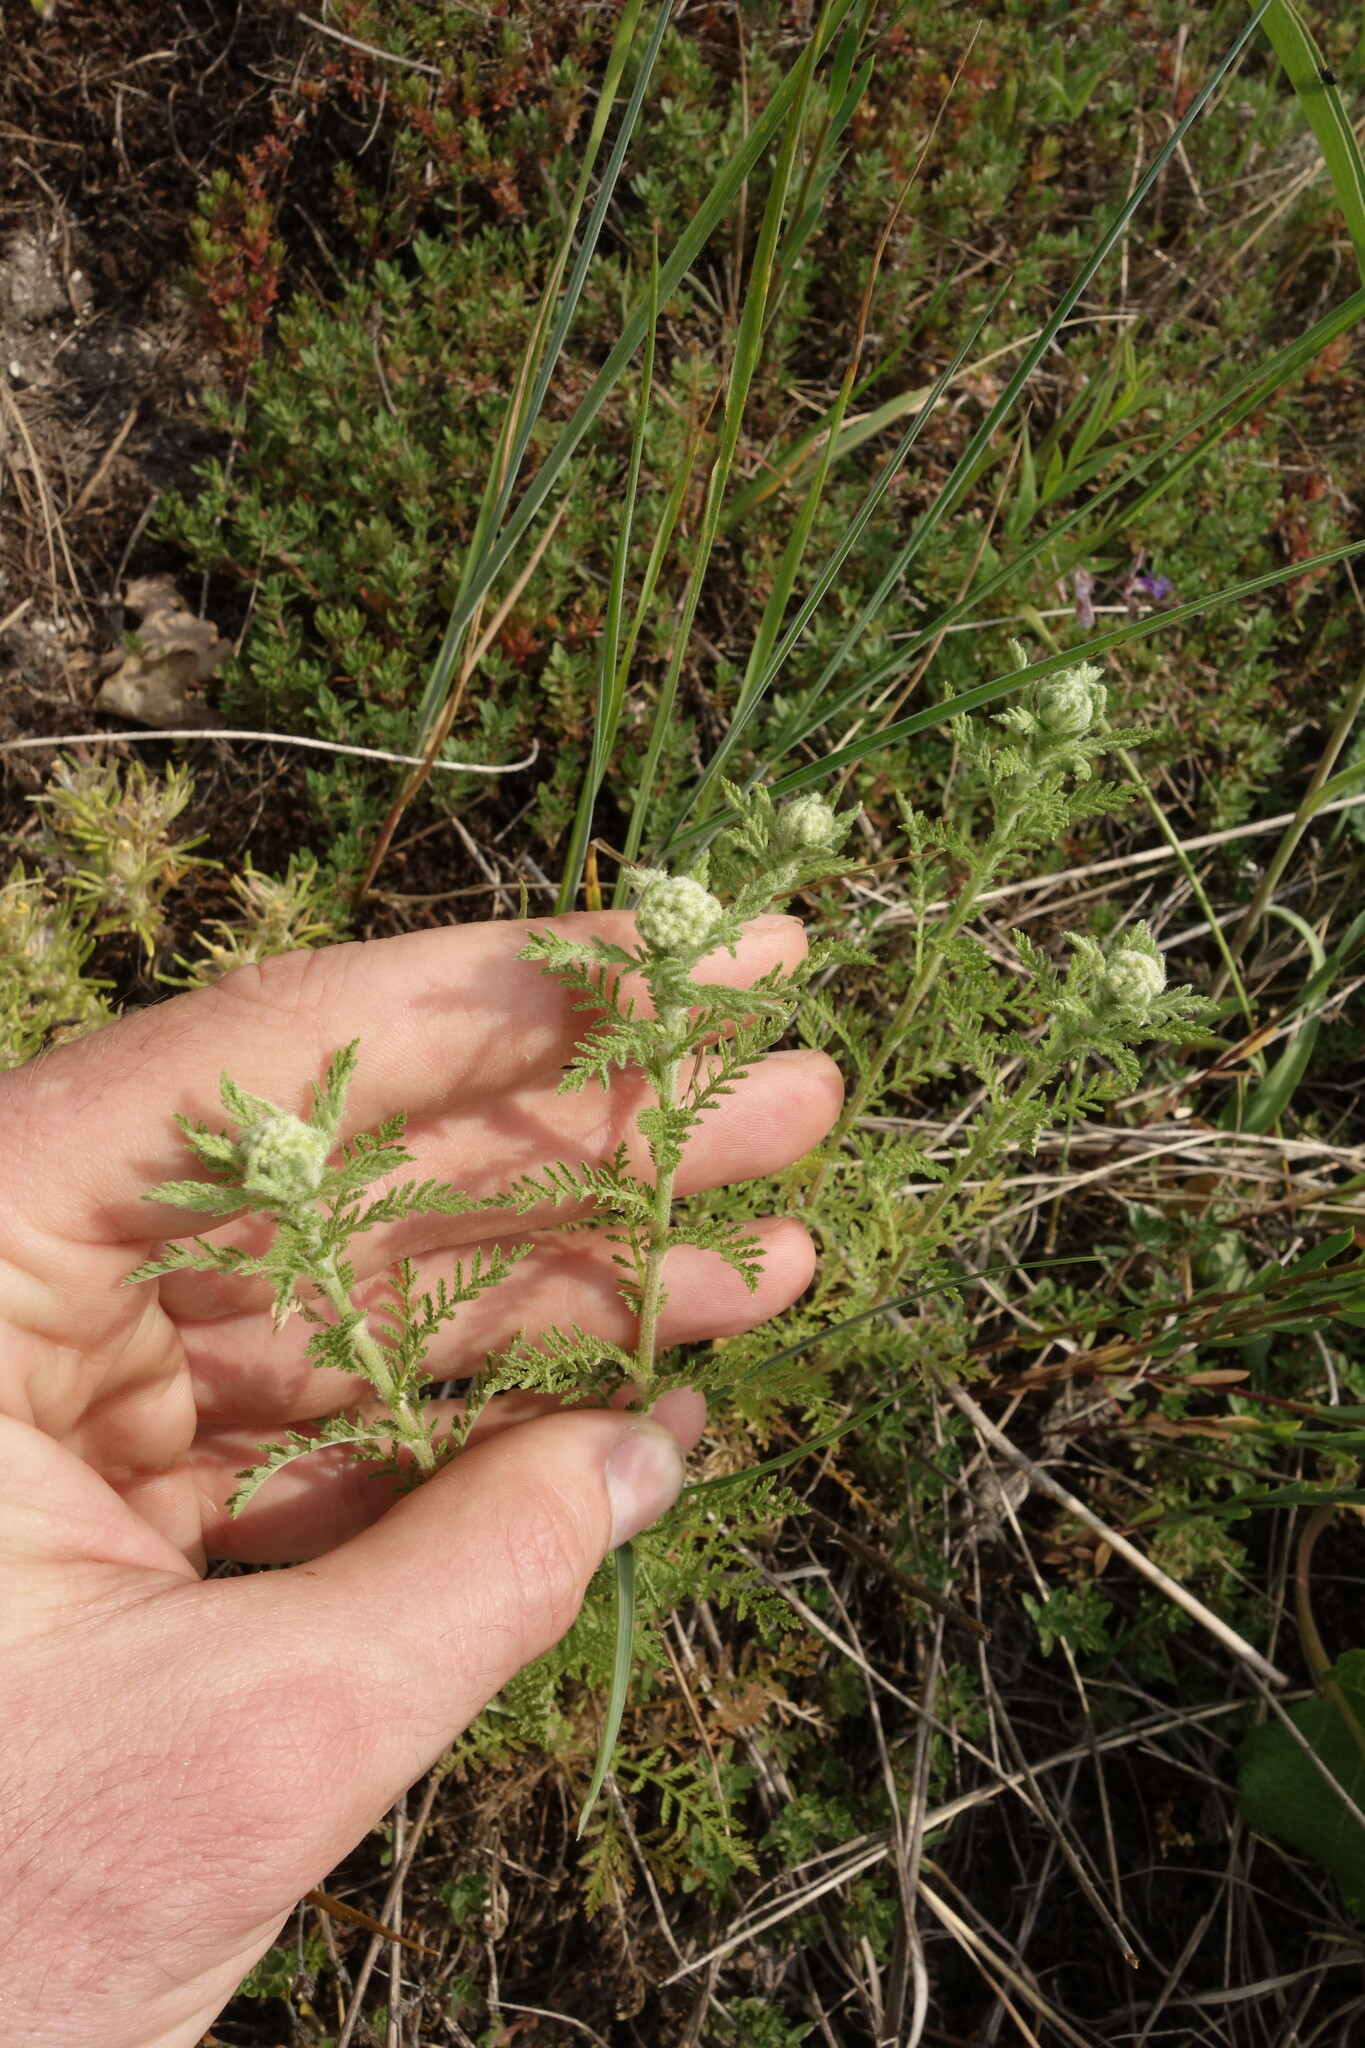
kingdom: Plantae
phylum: Tracheophyta
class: Magnoliopsida
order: Asterales
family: Asteraceae
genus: Achillea
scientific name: Achillea nobilis
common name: Noble yarrow
